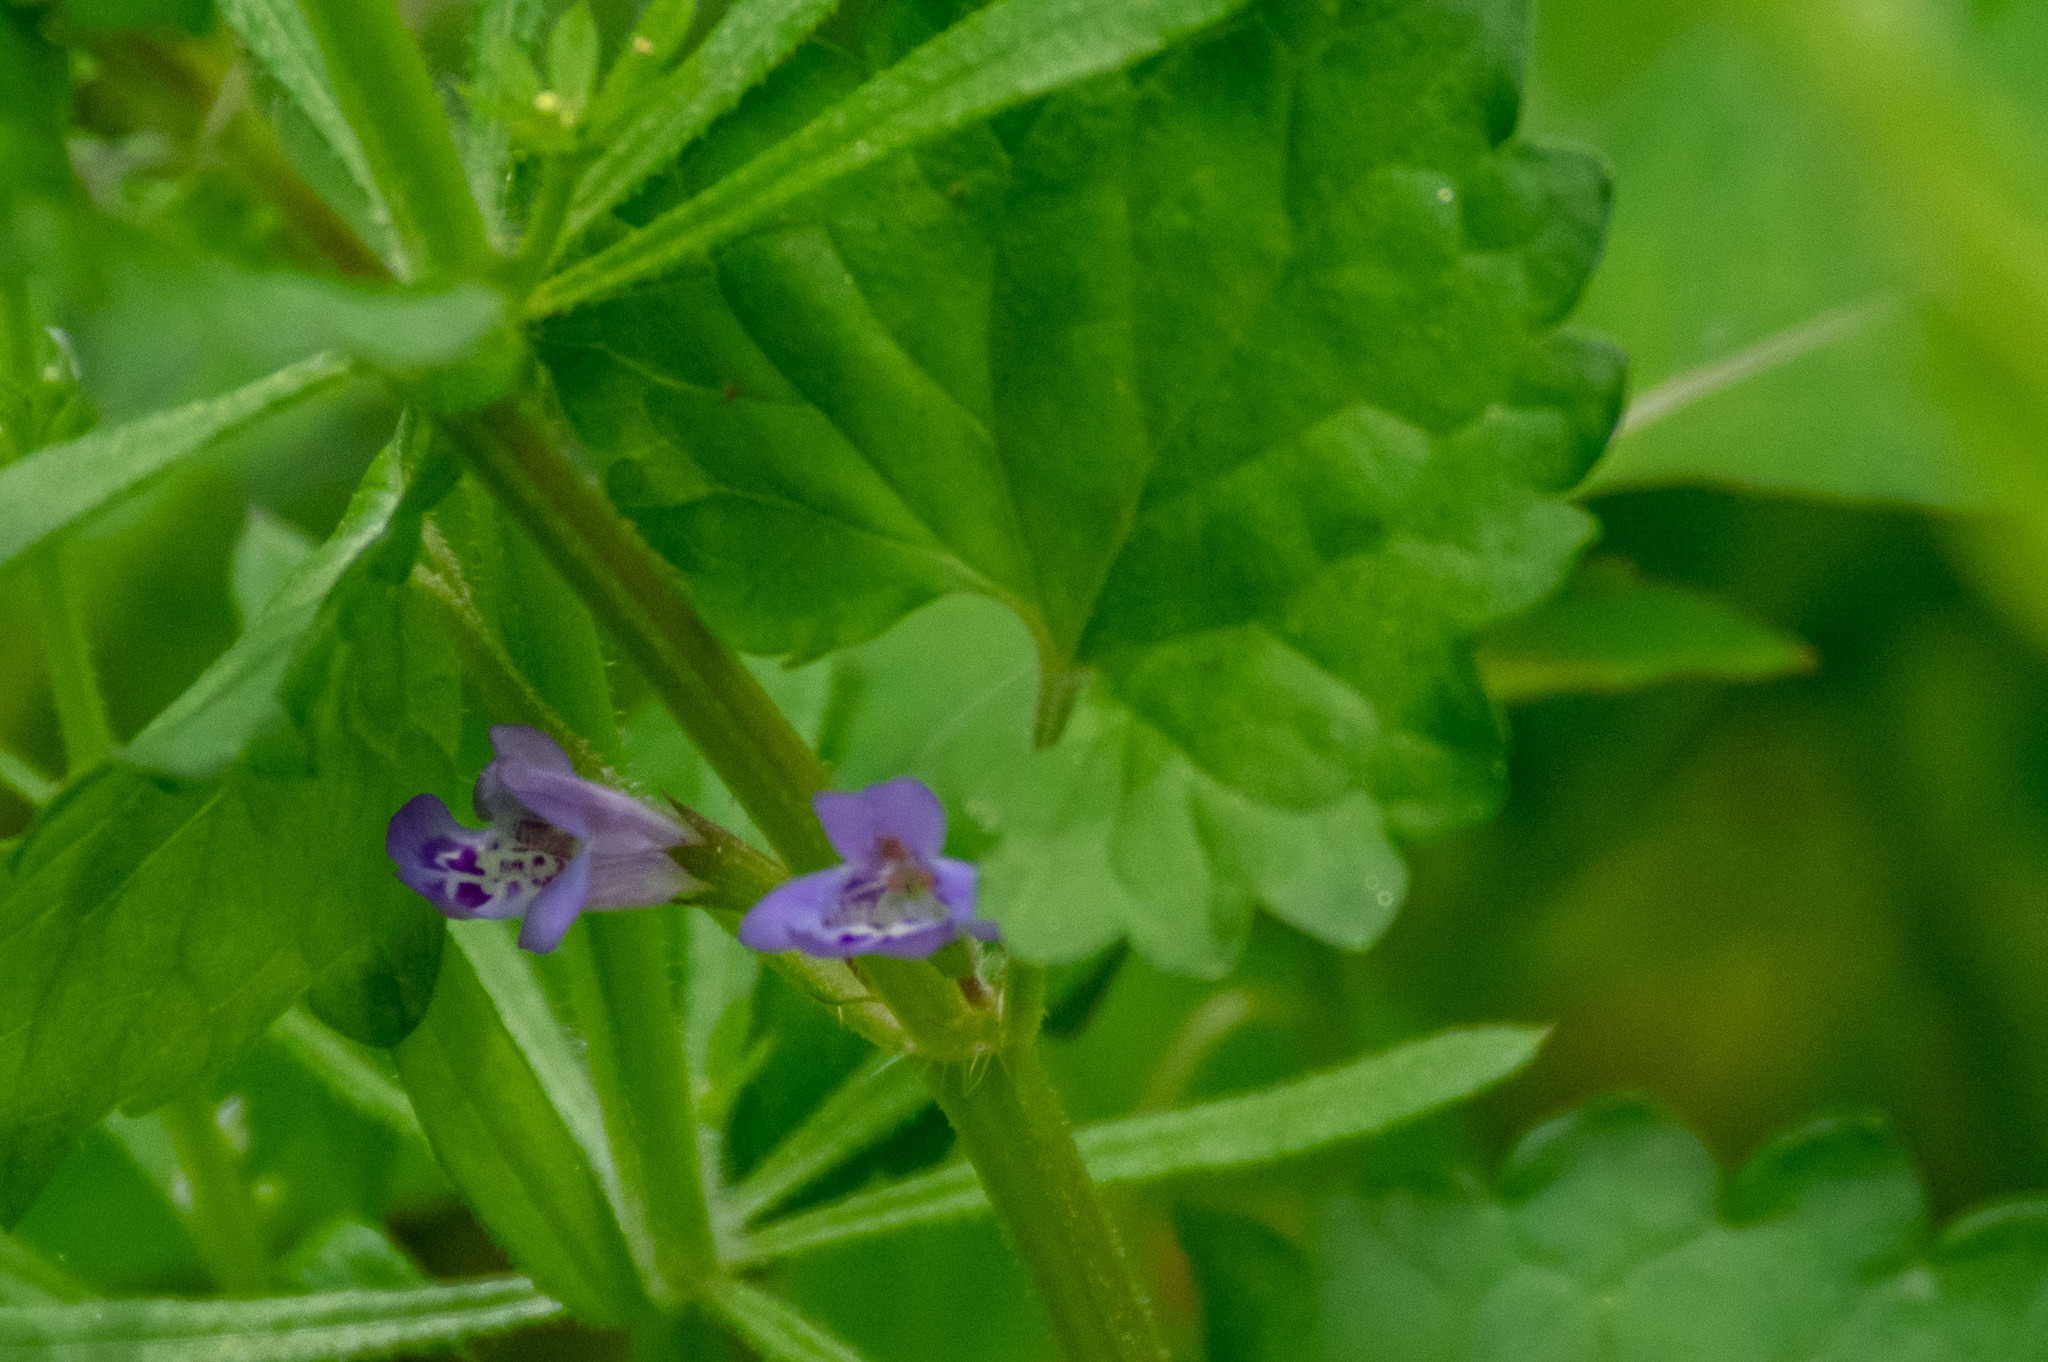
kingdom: Plantae
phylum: Tracheophyta
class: Magnoliopsida
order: Lamiales
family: Lamiaceae
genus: Glechoma
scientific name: Glechoma hederacea
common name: Ground ivy
